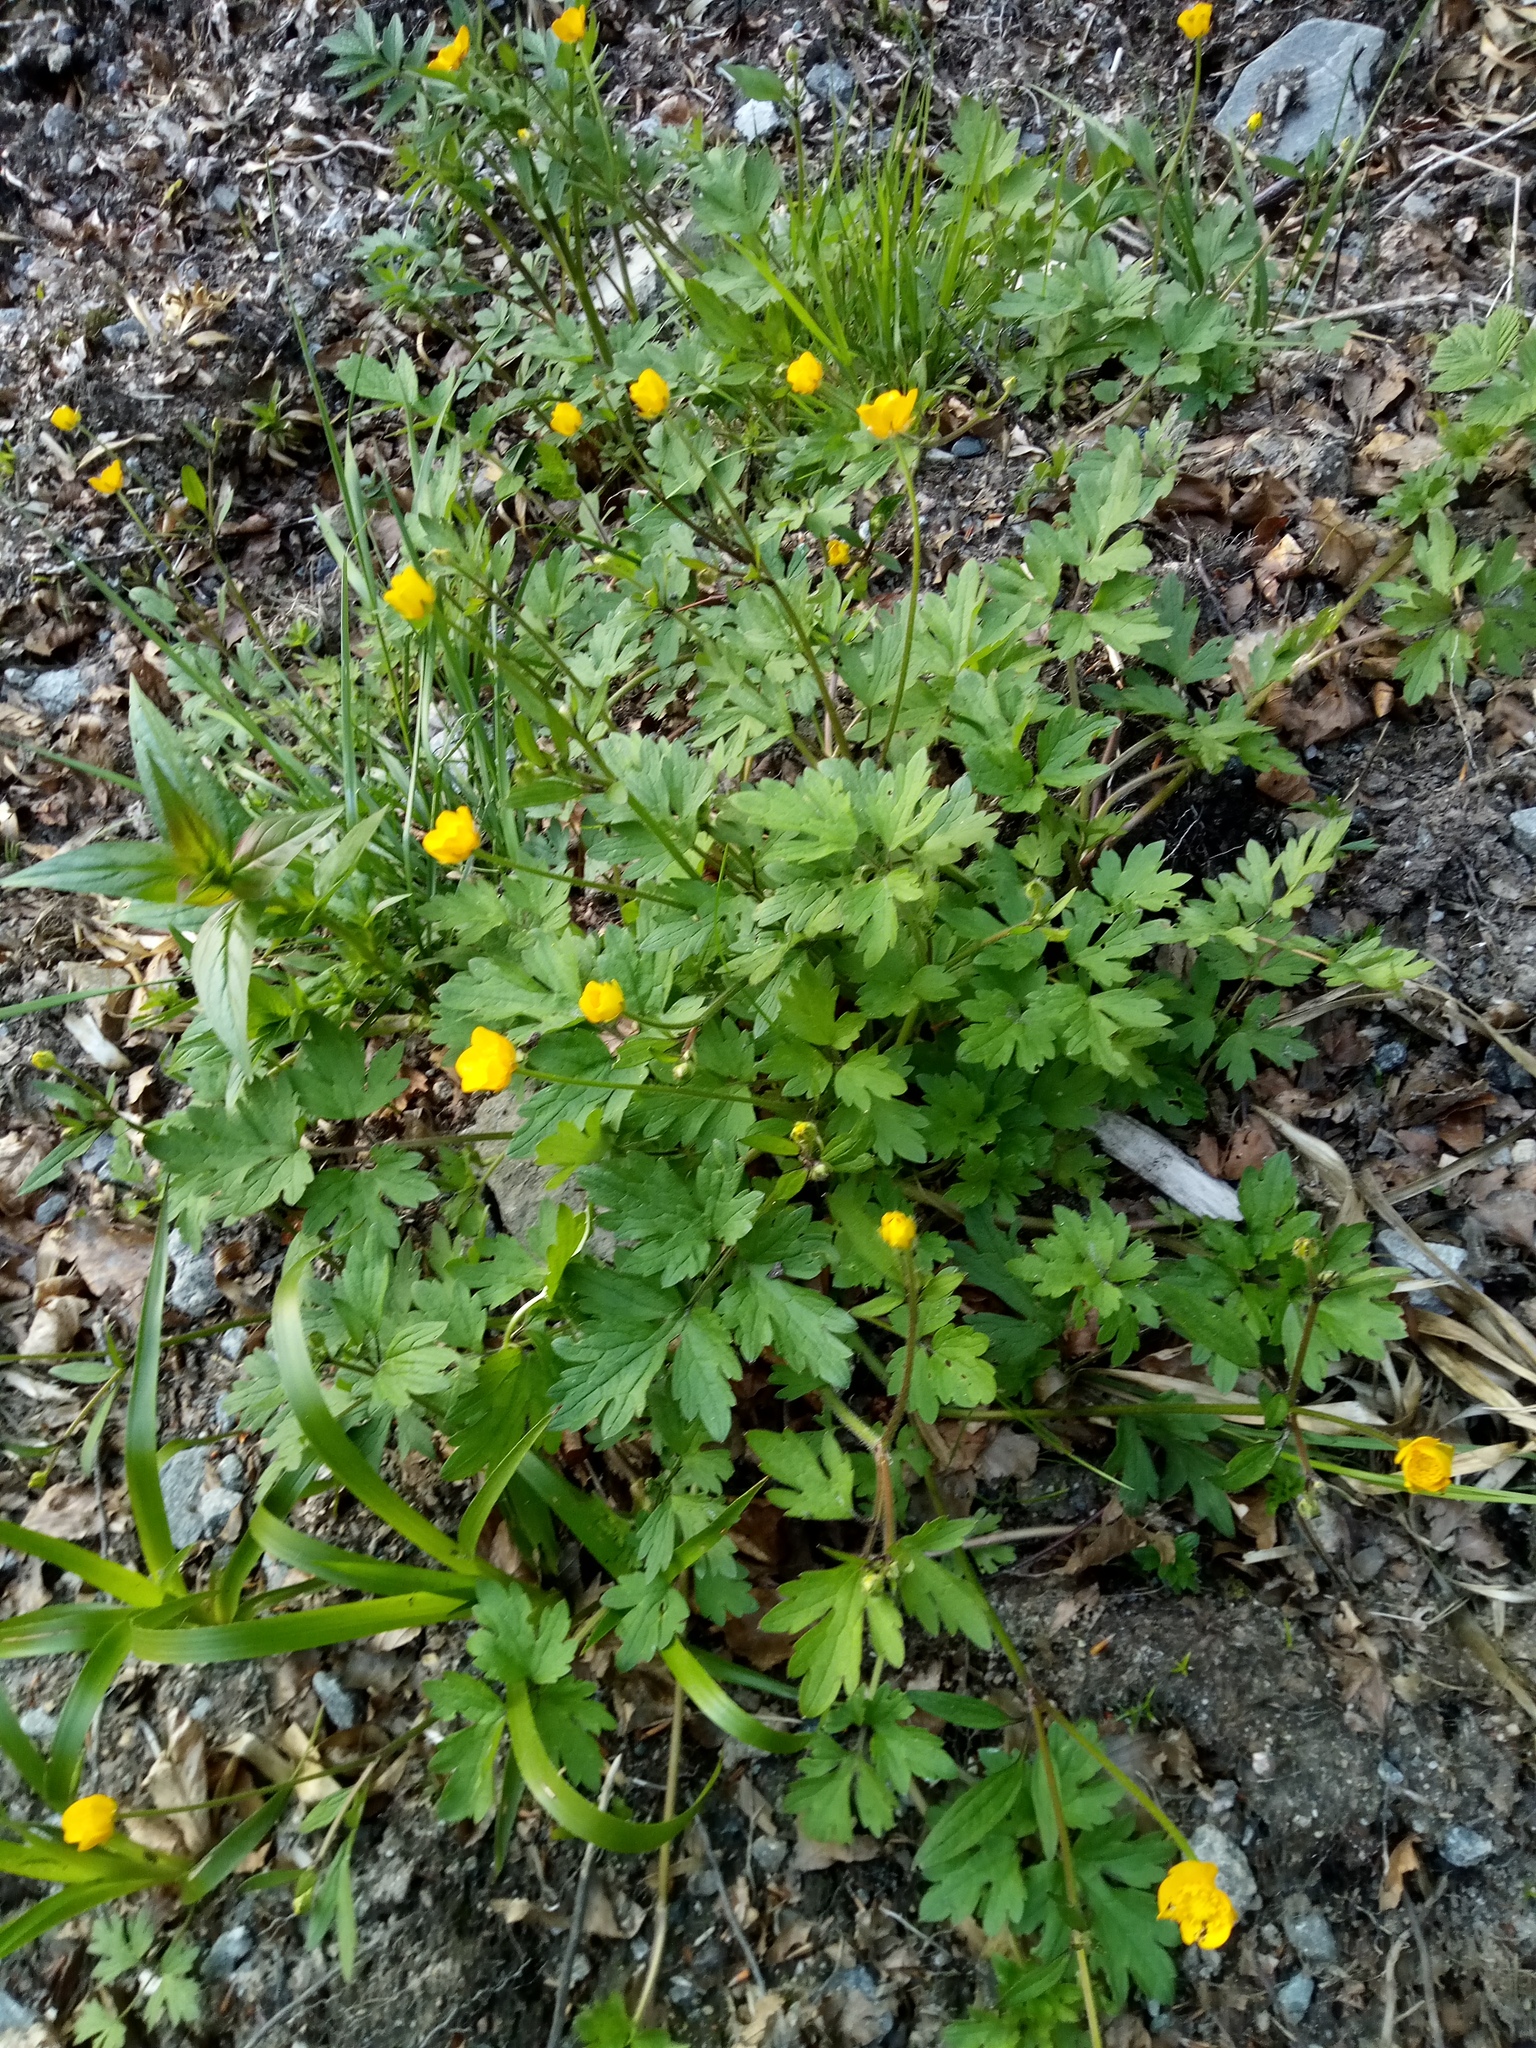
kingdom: Plantae
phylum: Tracheophyta
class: Magnoliopsida
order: Ranunculales
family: Ranunculaceae
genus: Ranunculus
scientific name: Ranunculus repens
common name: Creeping buttercup
